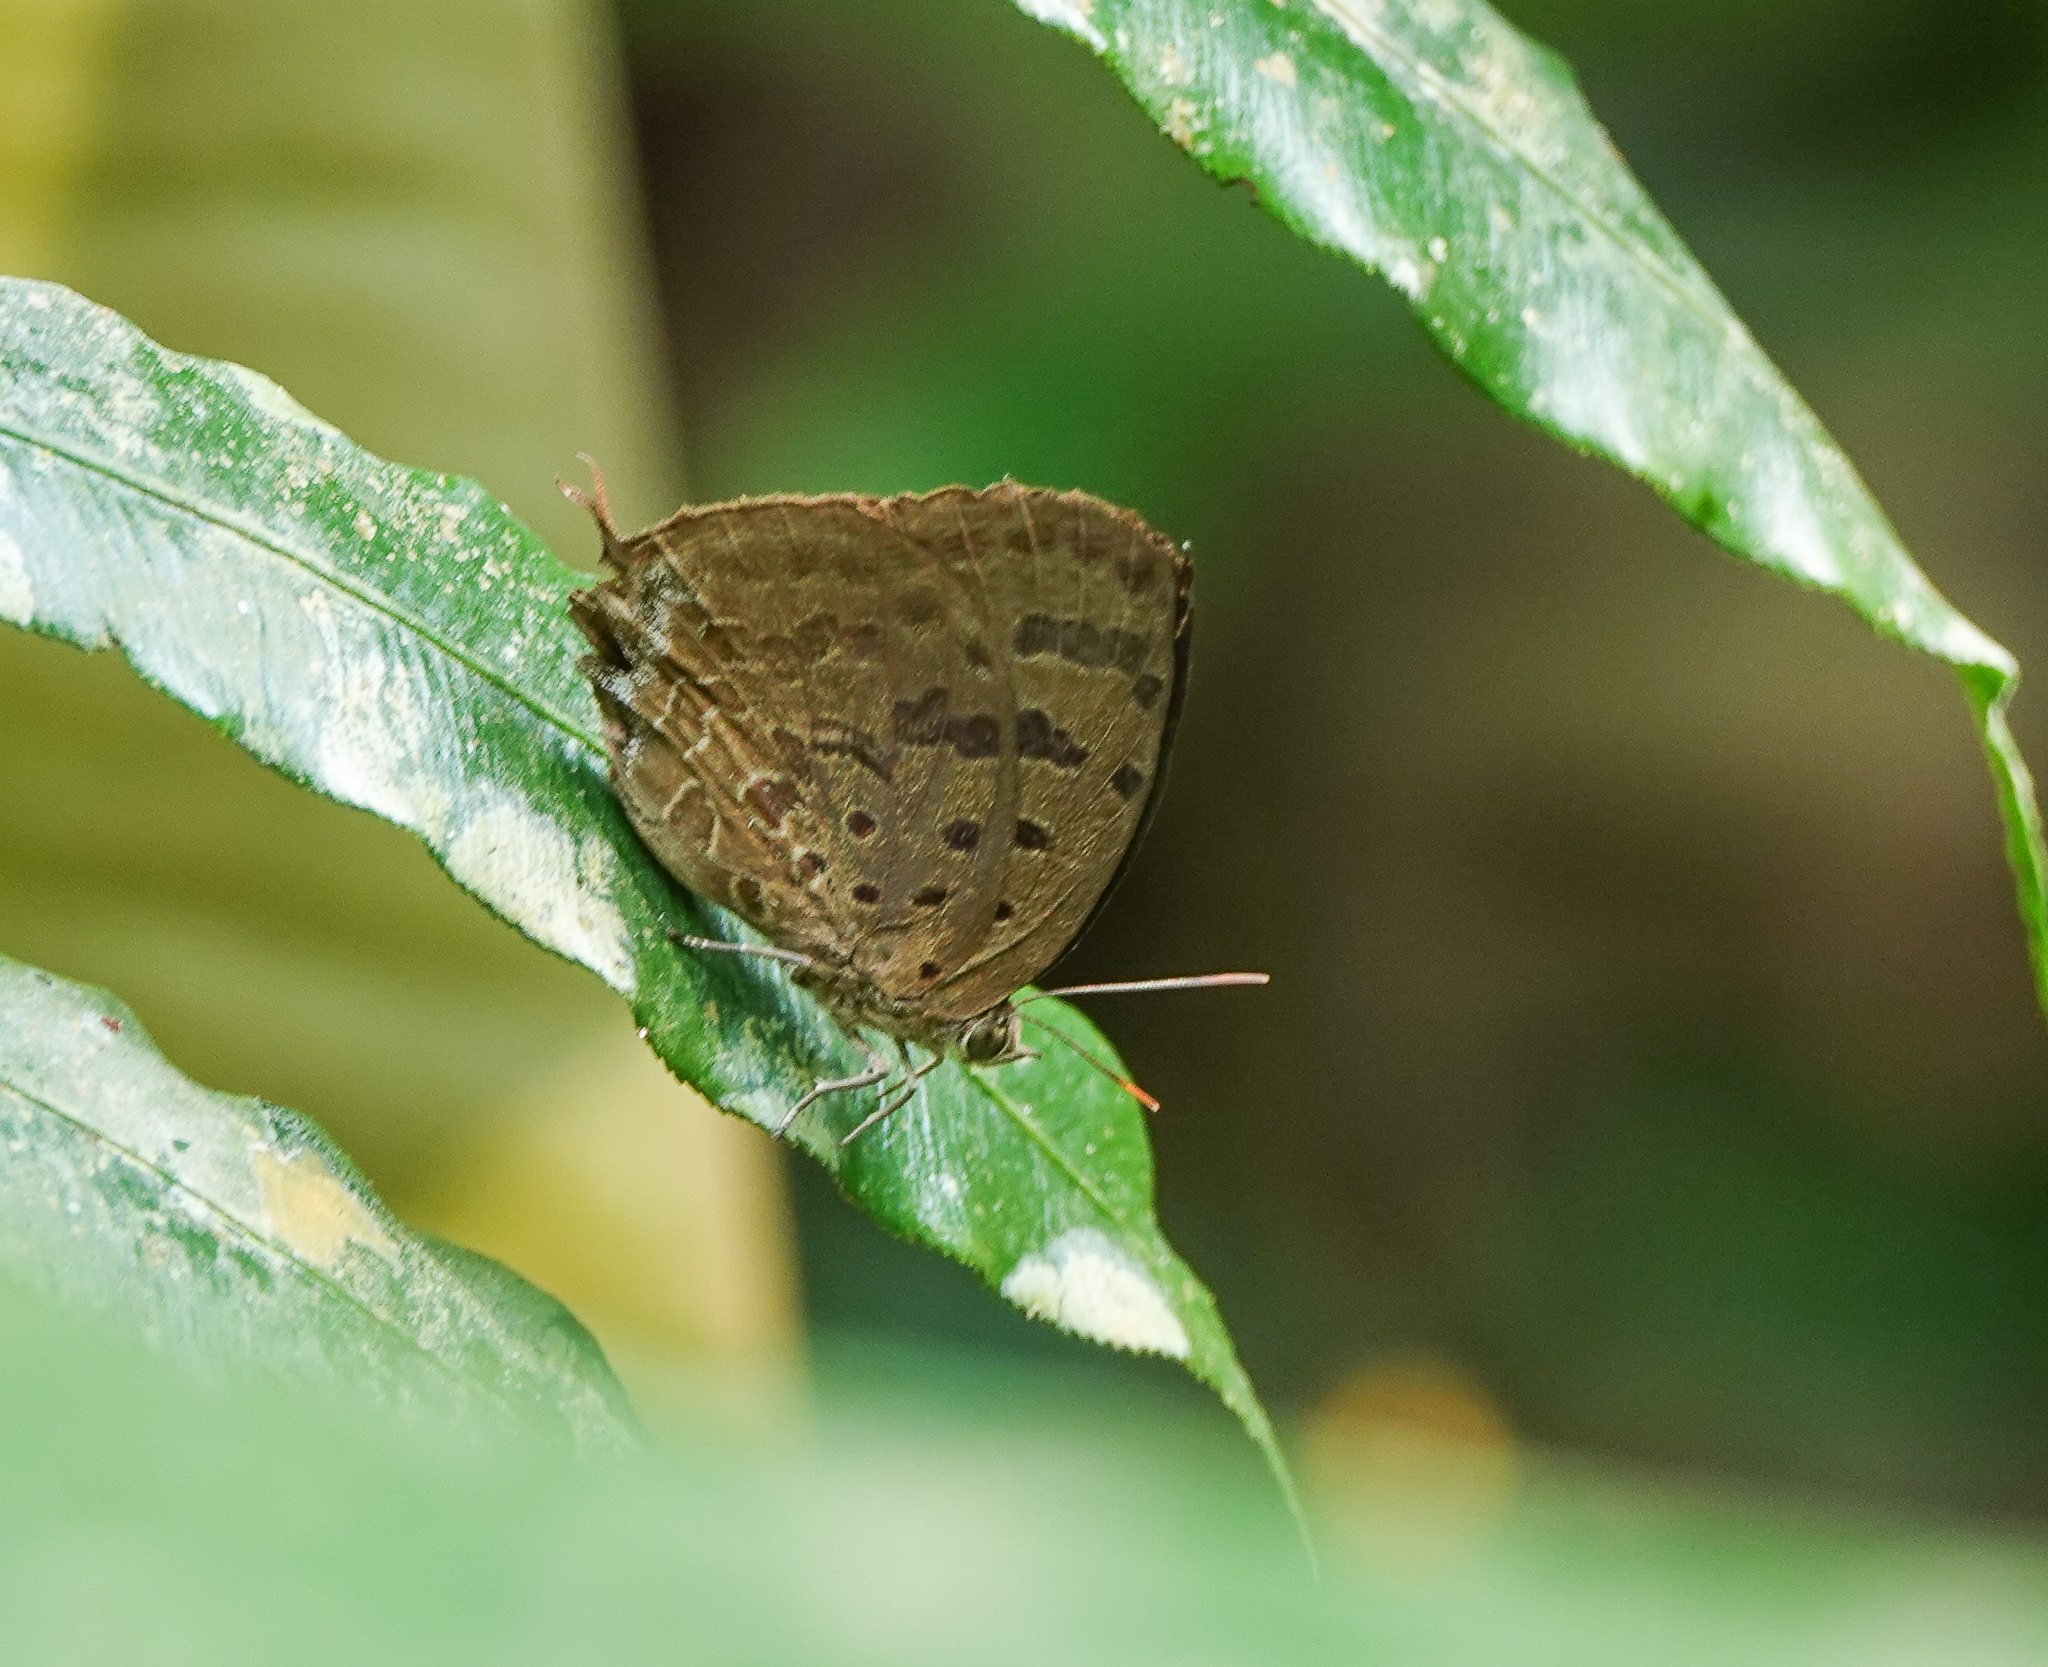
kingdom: Animalia
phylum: Arthropoda
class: Insecta
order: Lepidoptera
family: Lycaenidae
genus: Arhopala
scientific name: Arhopala
